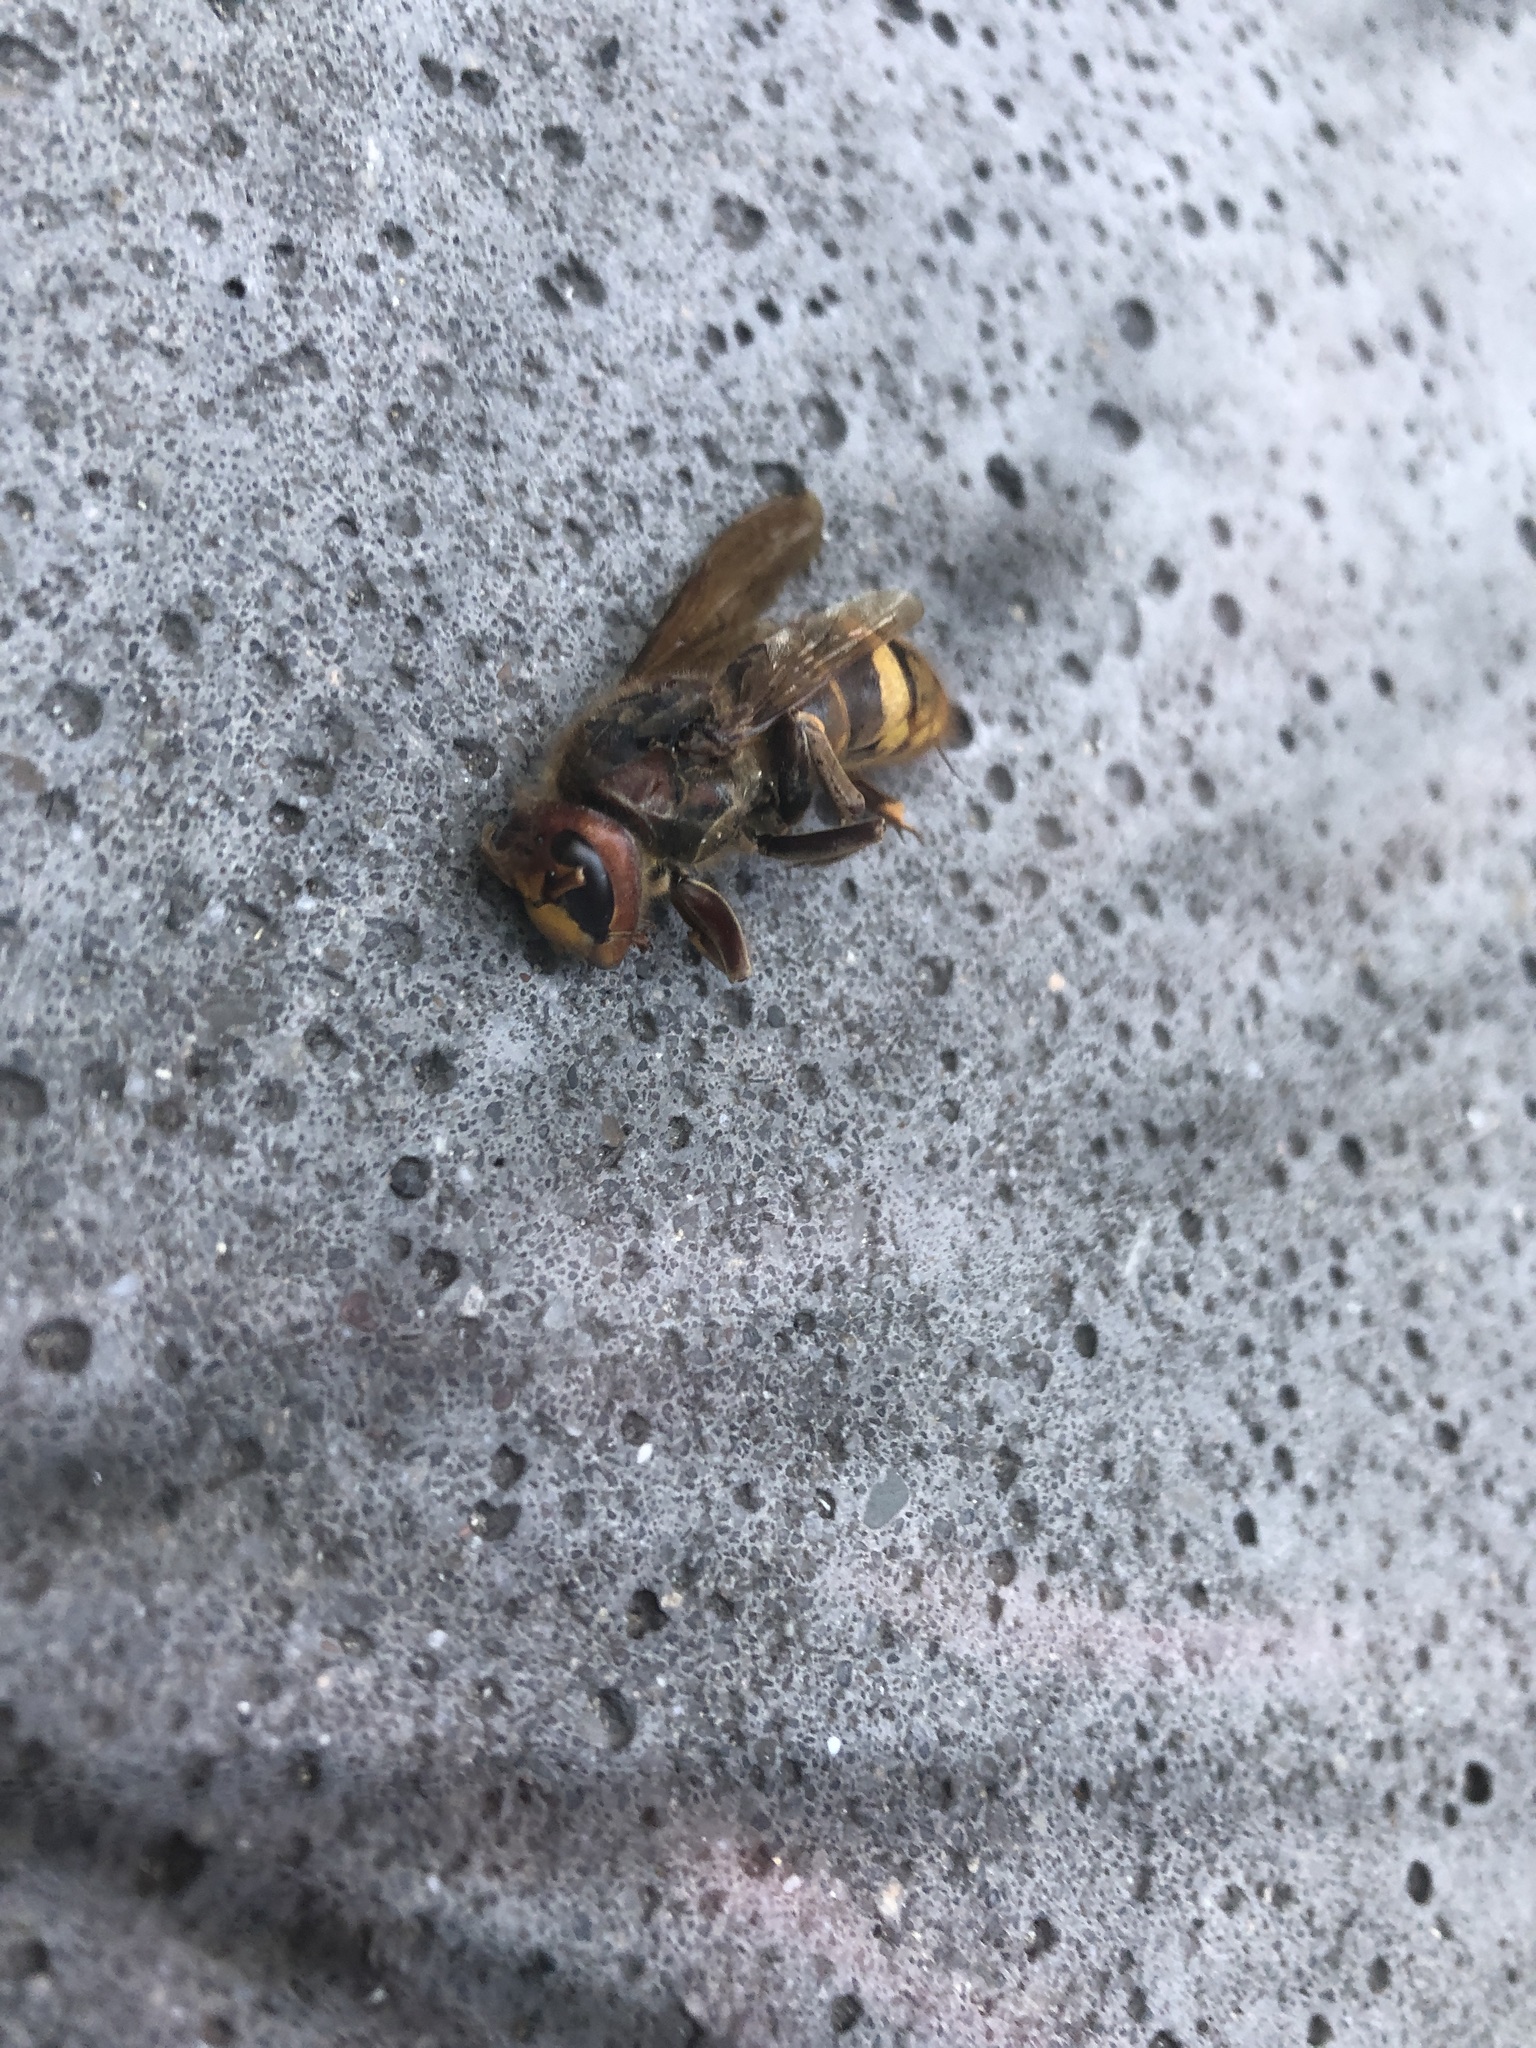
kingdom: Animalia
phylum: Arthropoda
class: Insecta
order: Hymenoptera
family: Vespidae
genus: Vespa
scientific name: Vespa crabro
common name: Hornet
